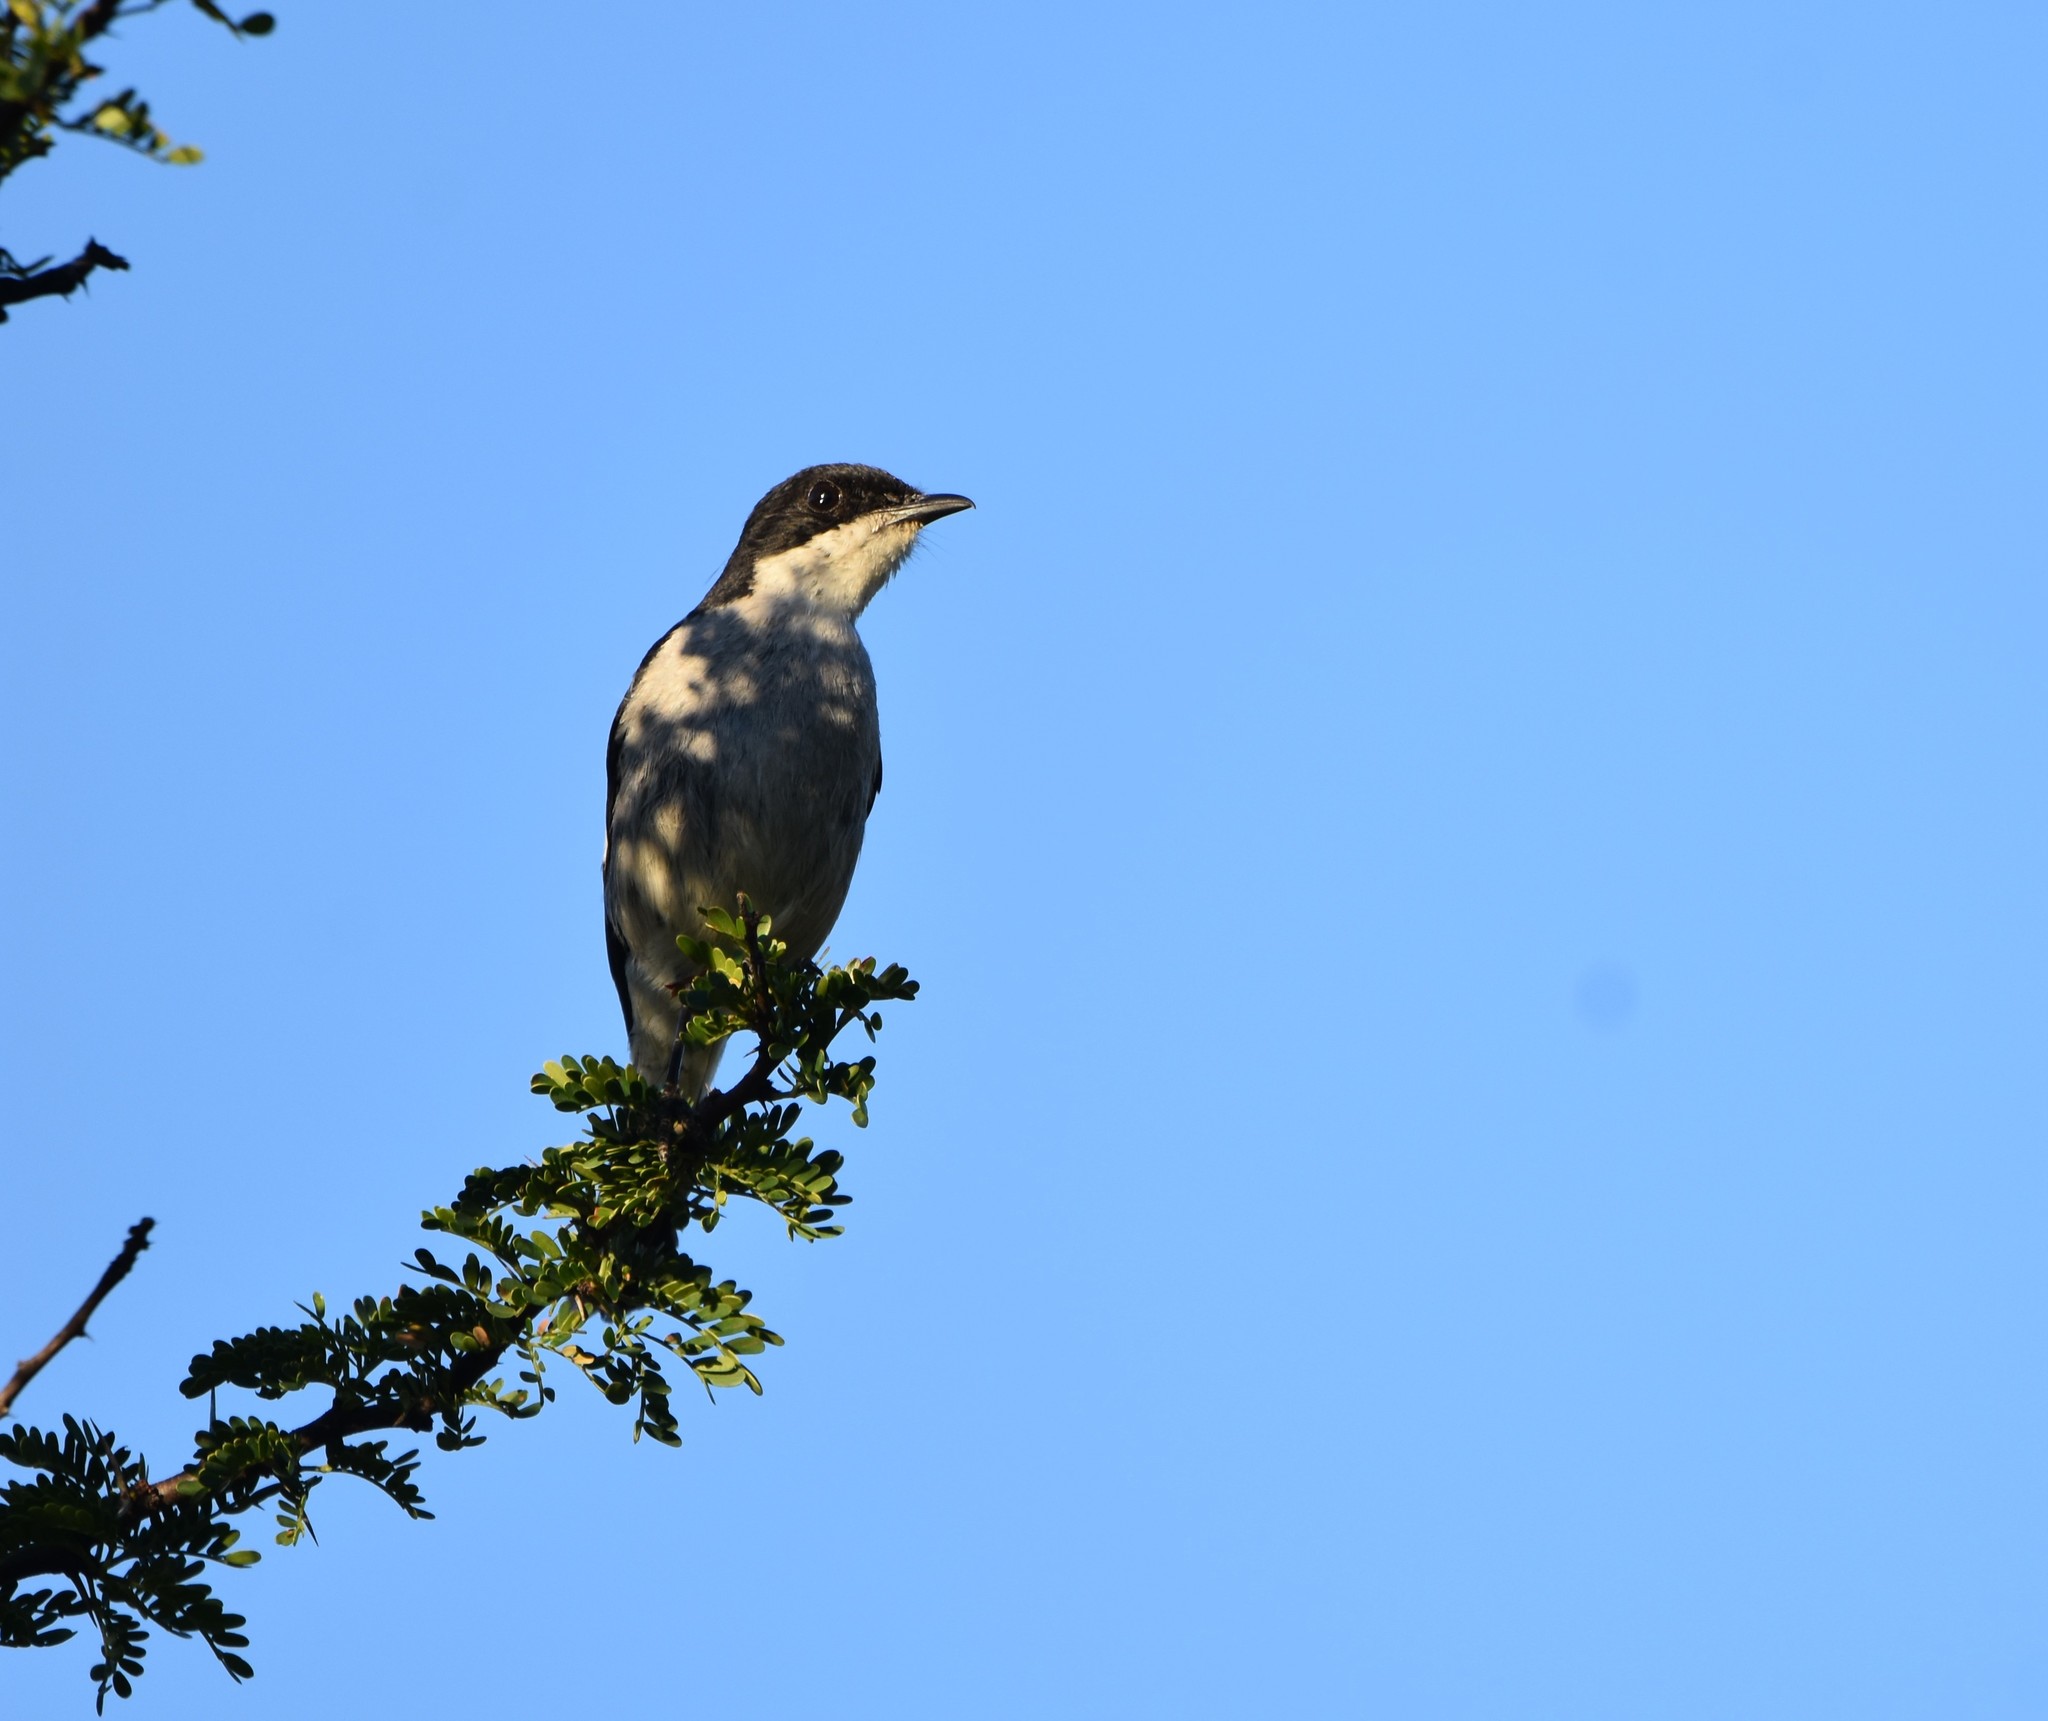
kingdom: Animalia
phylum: Chordata
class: Aves
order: Passeriformes
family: Muscicapidae
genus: Sigelus
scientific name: Sigelus silens
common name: Fiscal flycatcher
